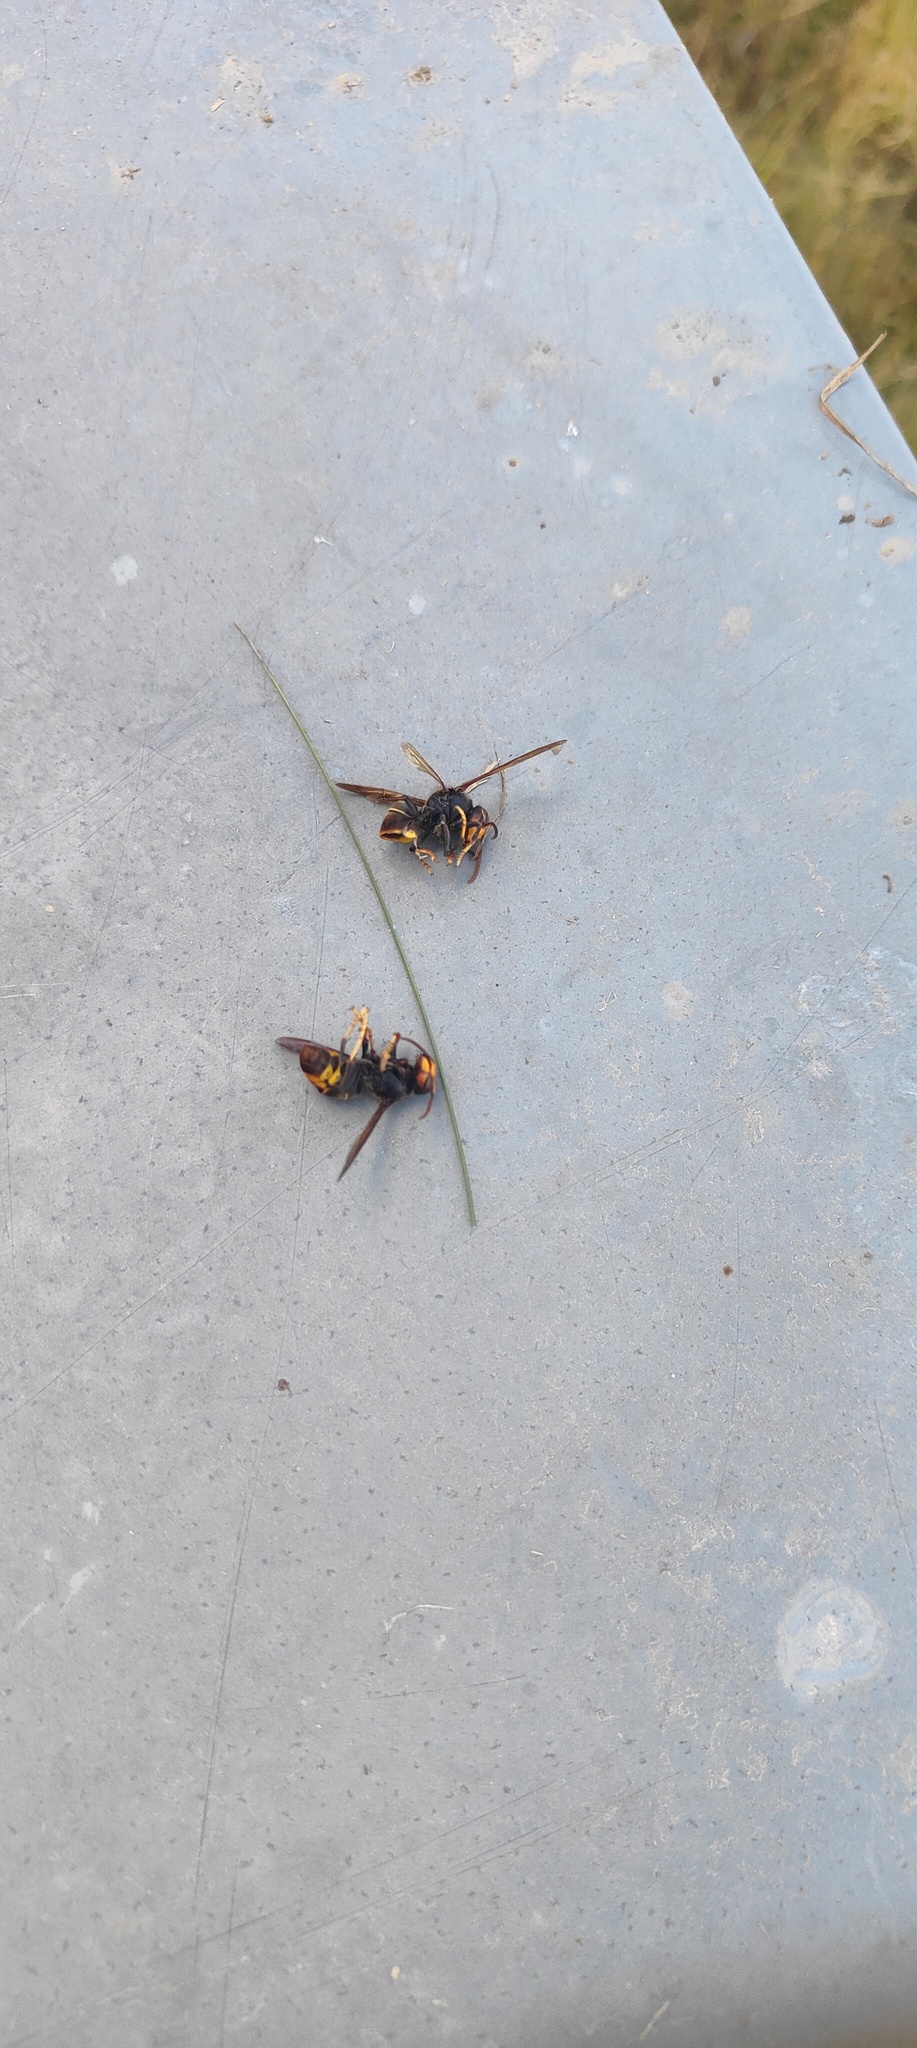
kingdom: Animalia
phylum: Arthropoda
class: Insecta
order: Hymenoptera
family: Vespidae
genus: Vespa
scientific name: Vespa velutina
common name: Asian hornet
